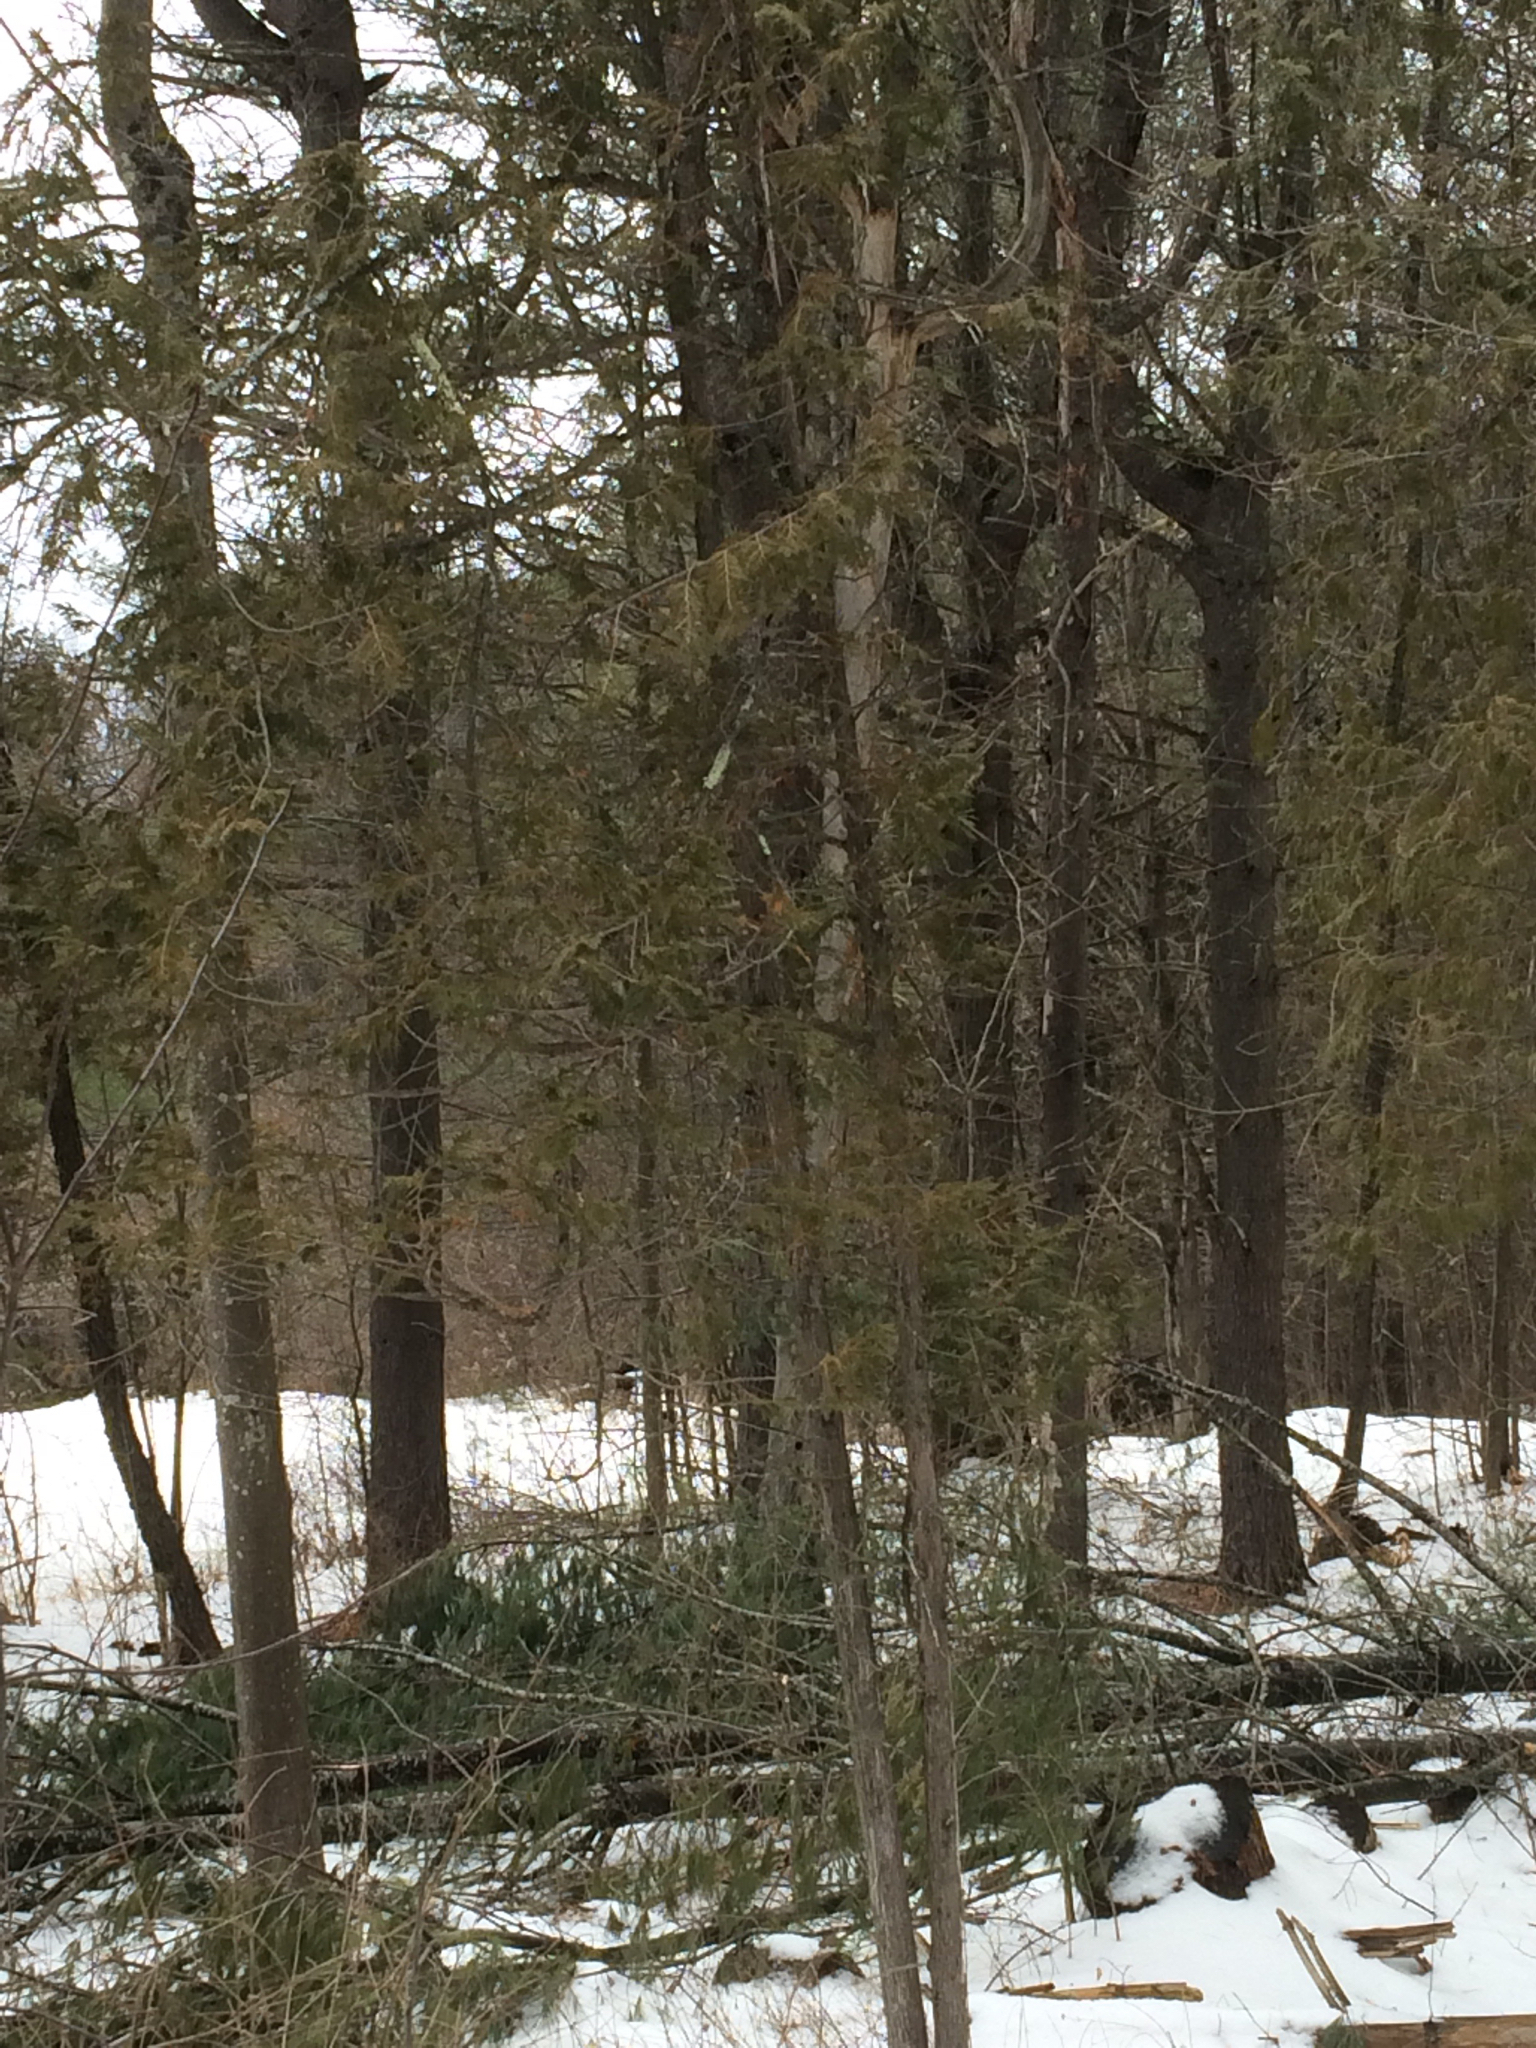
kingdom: Plantae
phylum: Tracheophyta
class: Pinopsida
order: Pinales
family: Cupressaceae
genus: Thuja
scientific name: Thuja occidentalis
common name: Northern white-cedar
